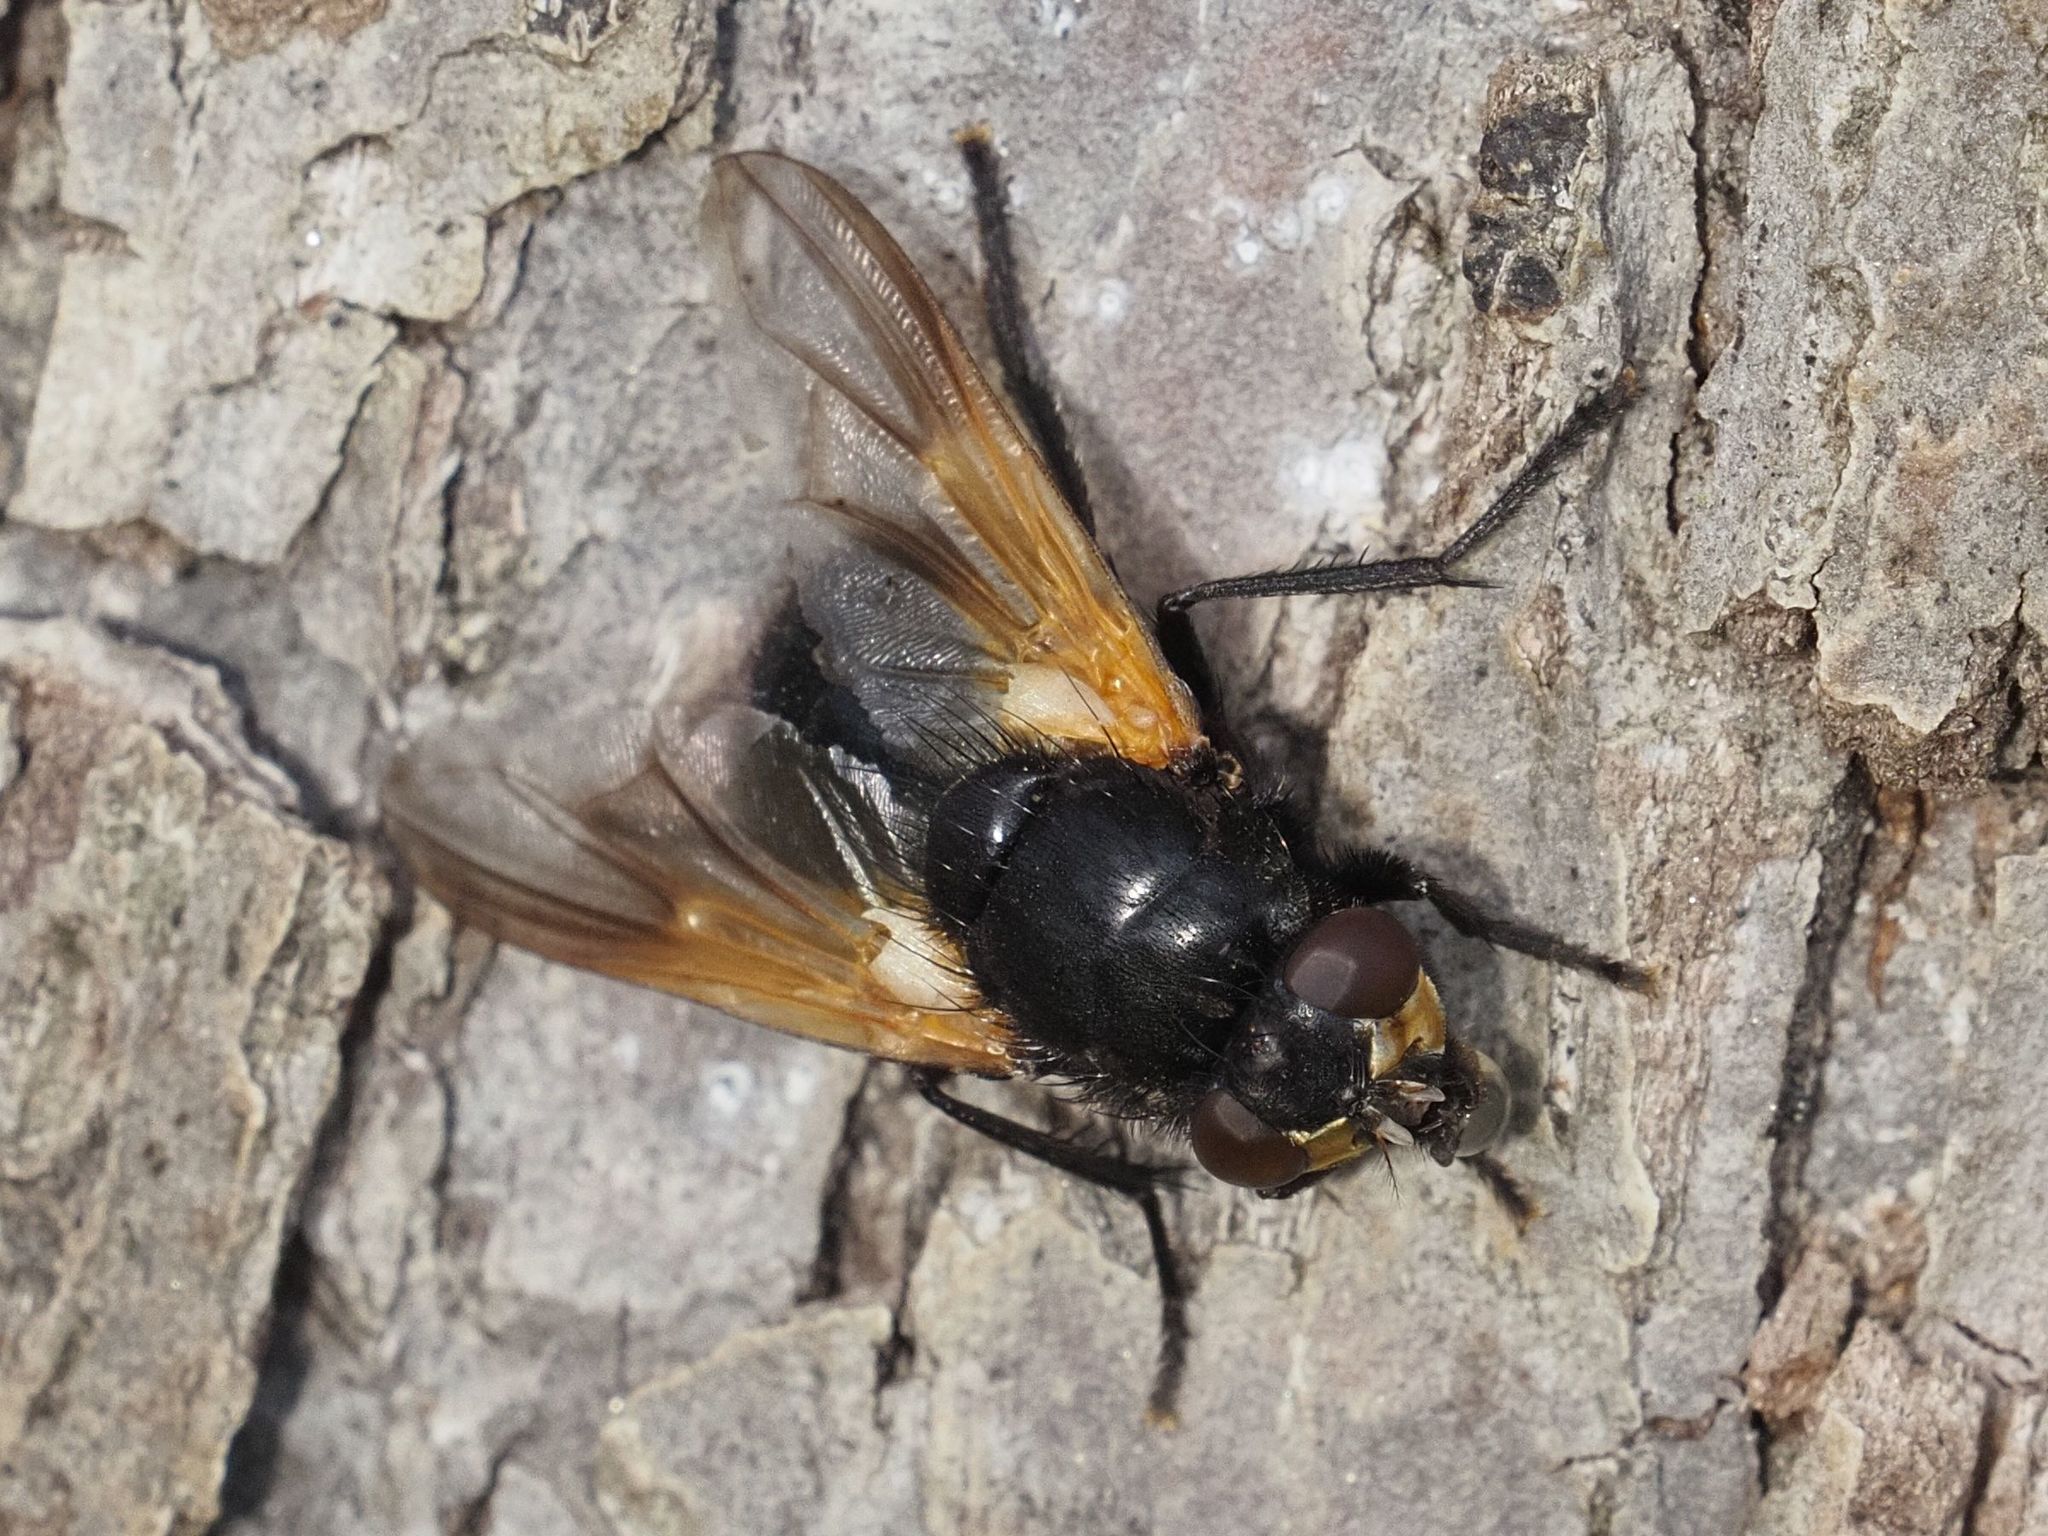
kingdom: Animalia
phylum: Arthropoda
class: Insecta
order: Diptera
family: Muscidae
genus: Mesembrina
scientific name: Mesembrina meridiana
